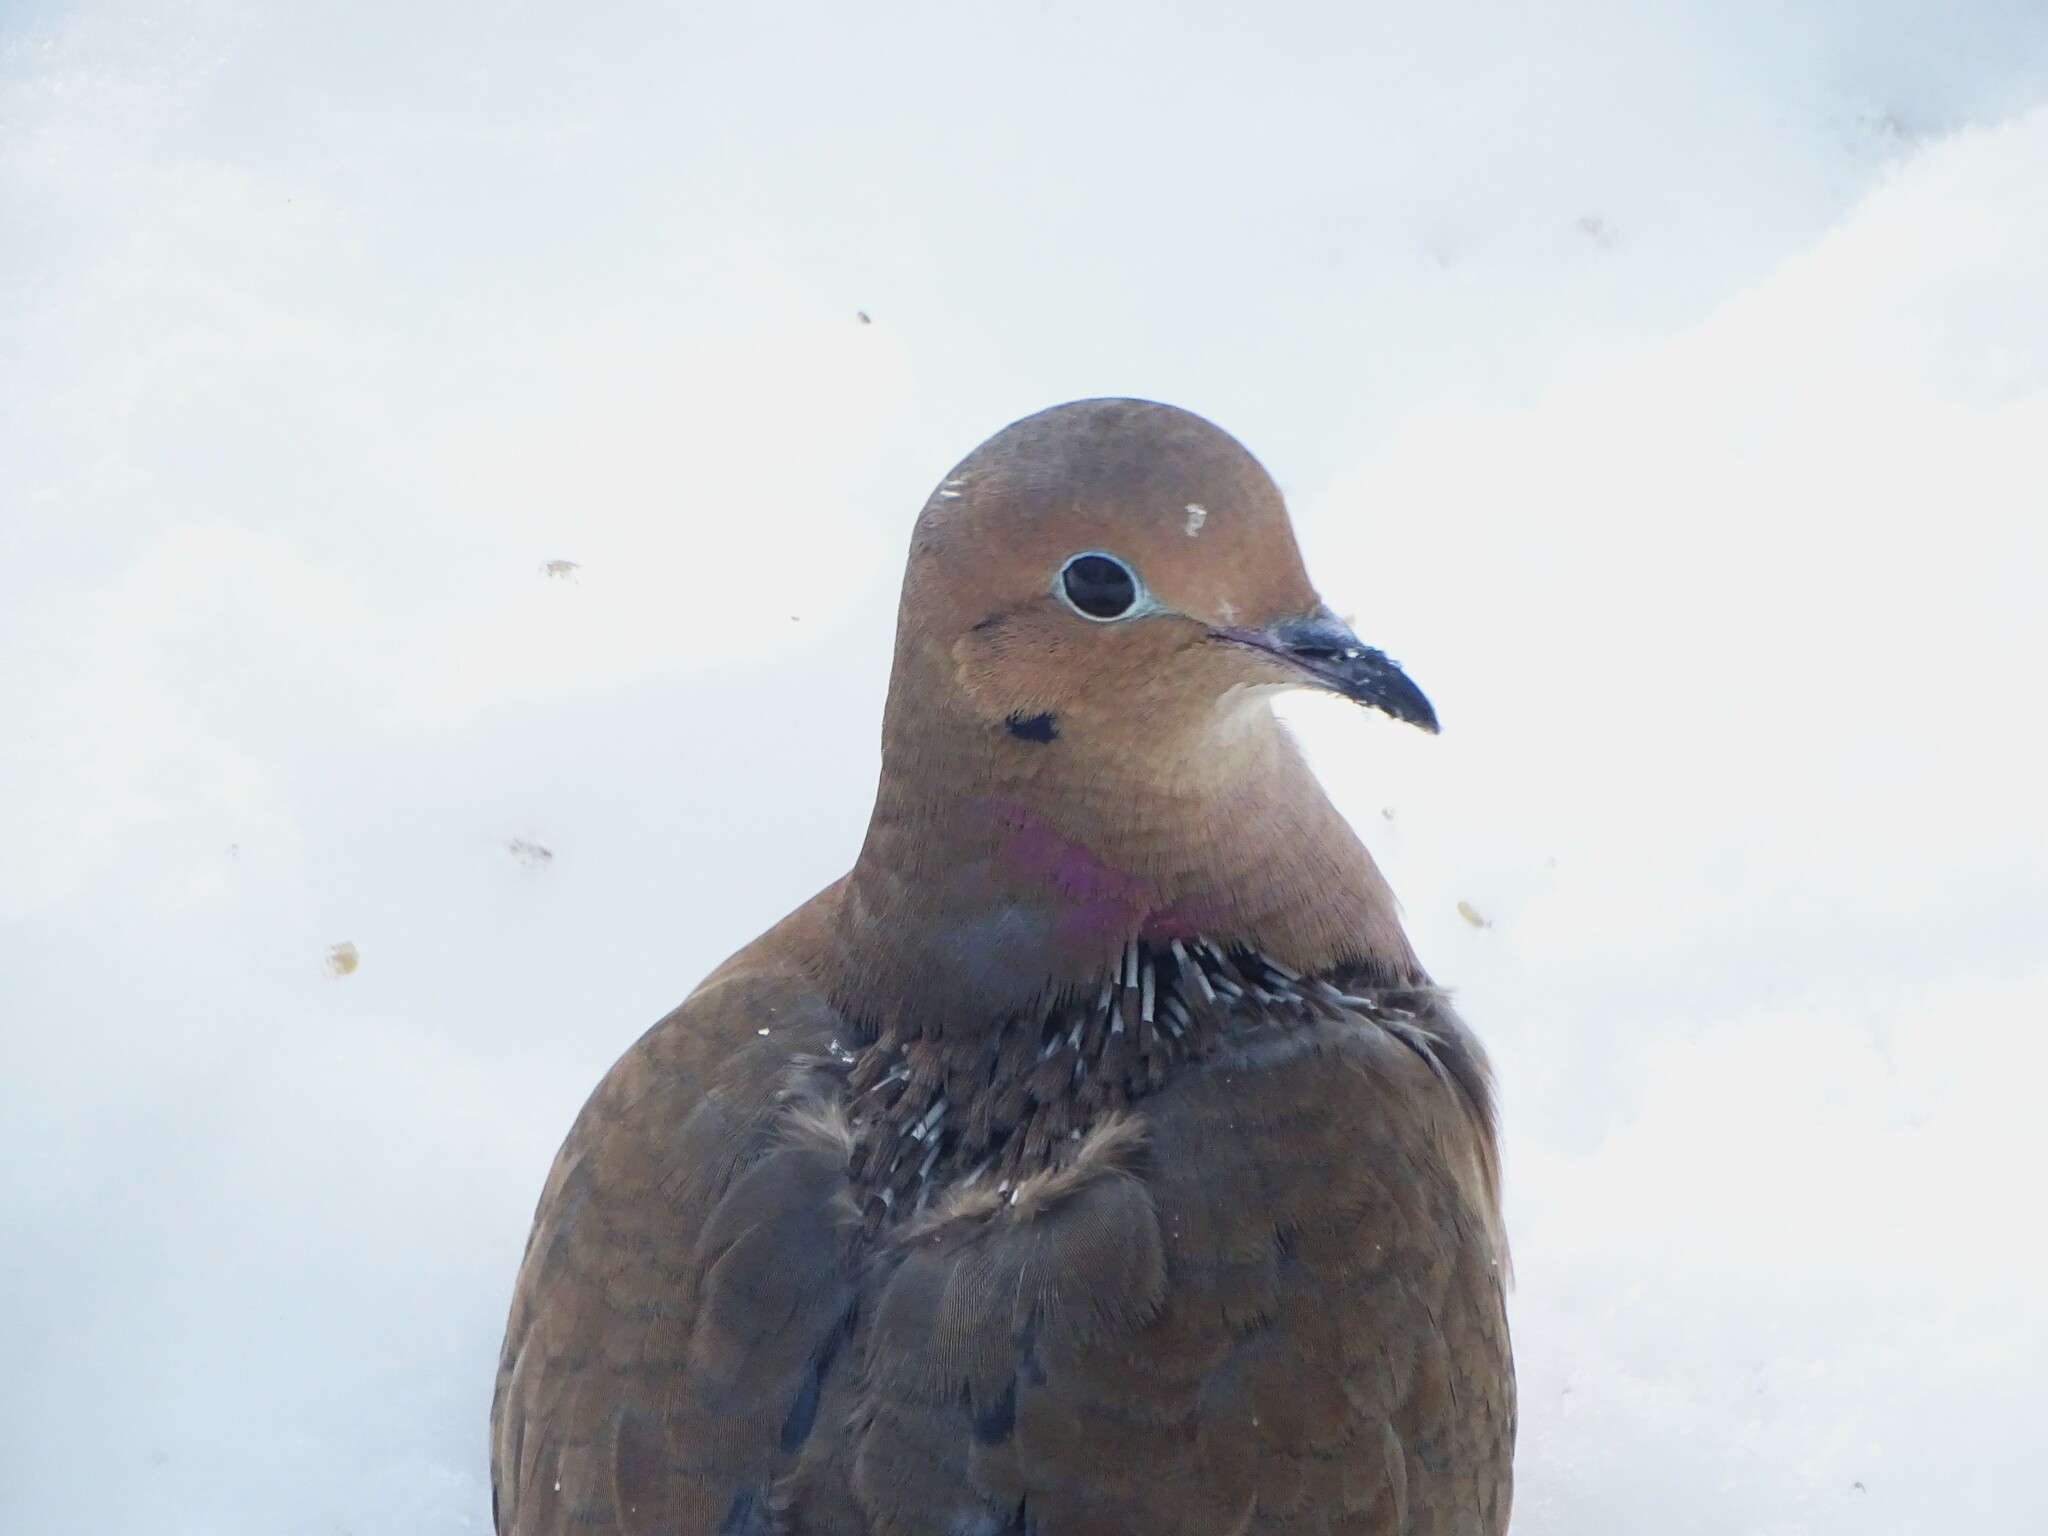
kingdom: Animalia
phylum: Chordata
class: Aves
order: Columbiformes
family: Columbidae
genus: Zenaida
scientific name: Zenaida macroura
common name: Mourning dove
